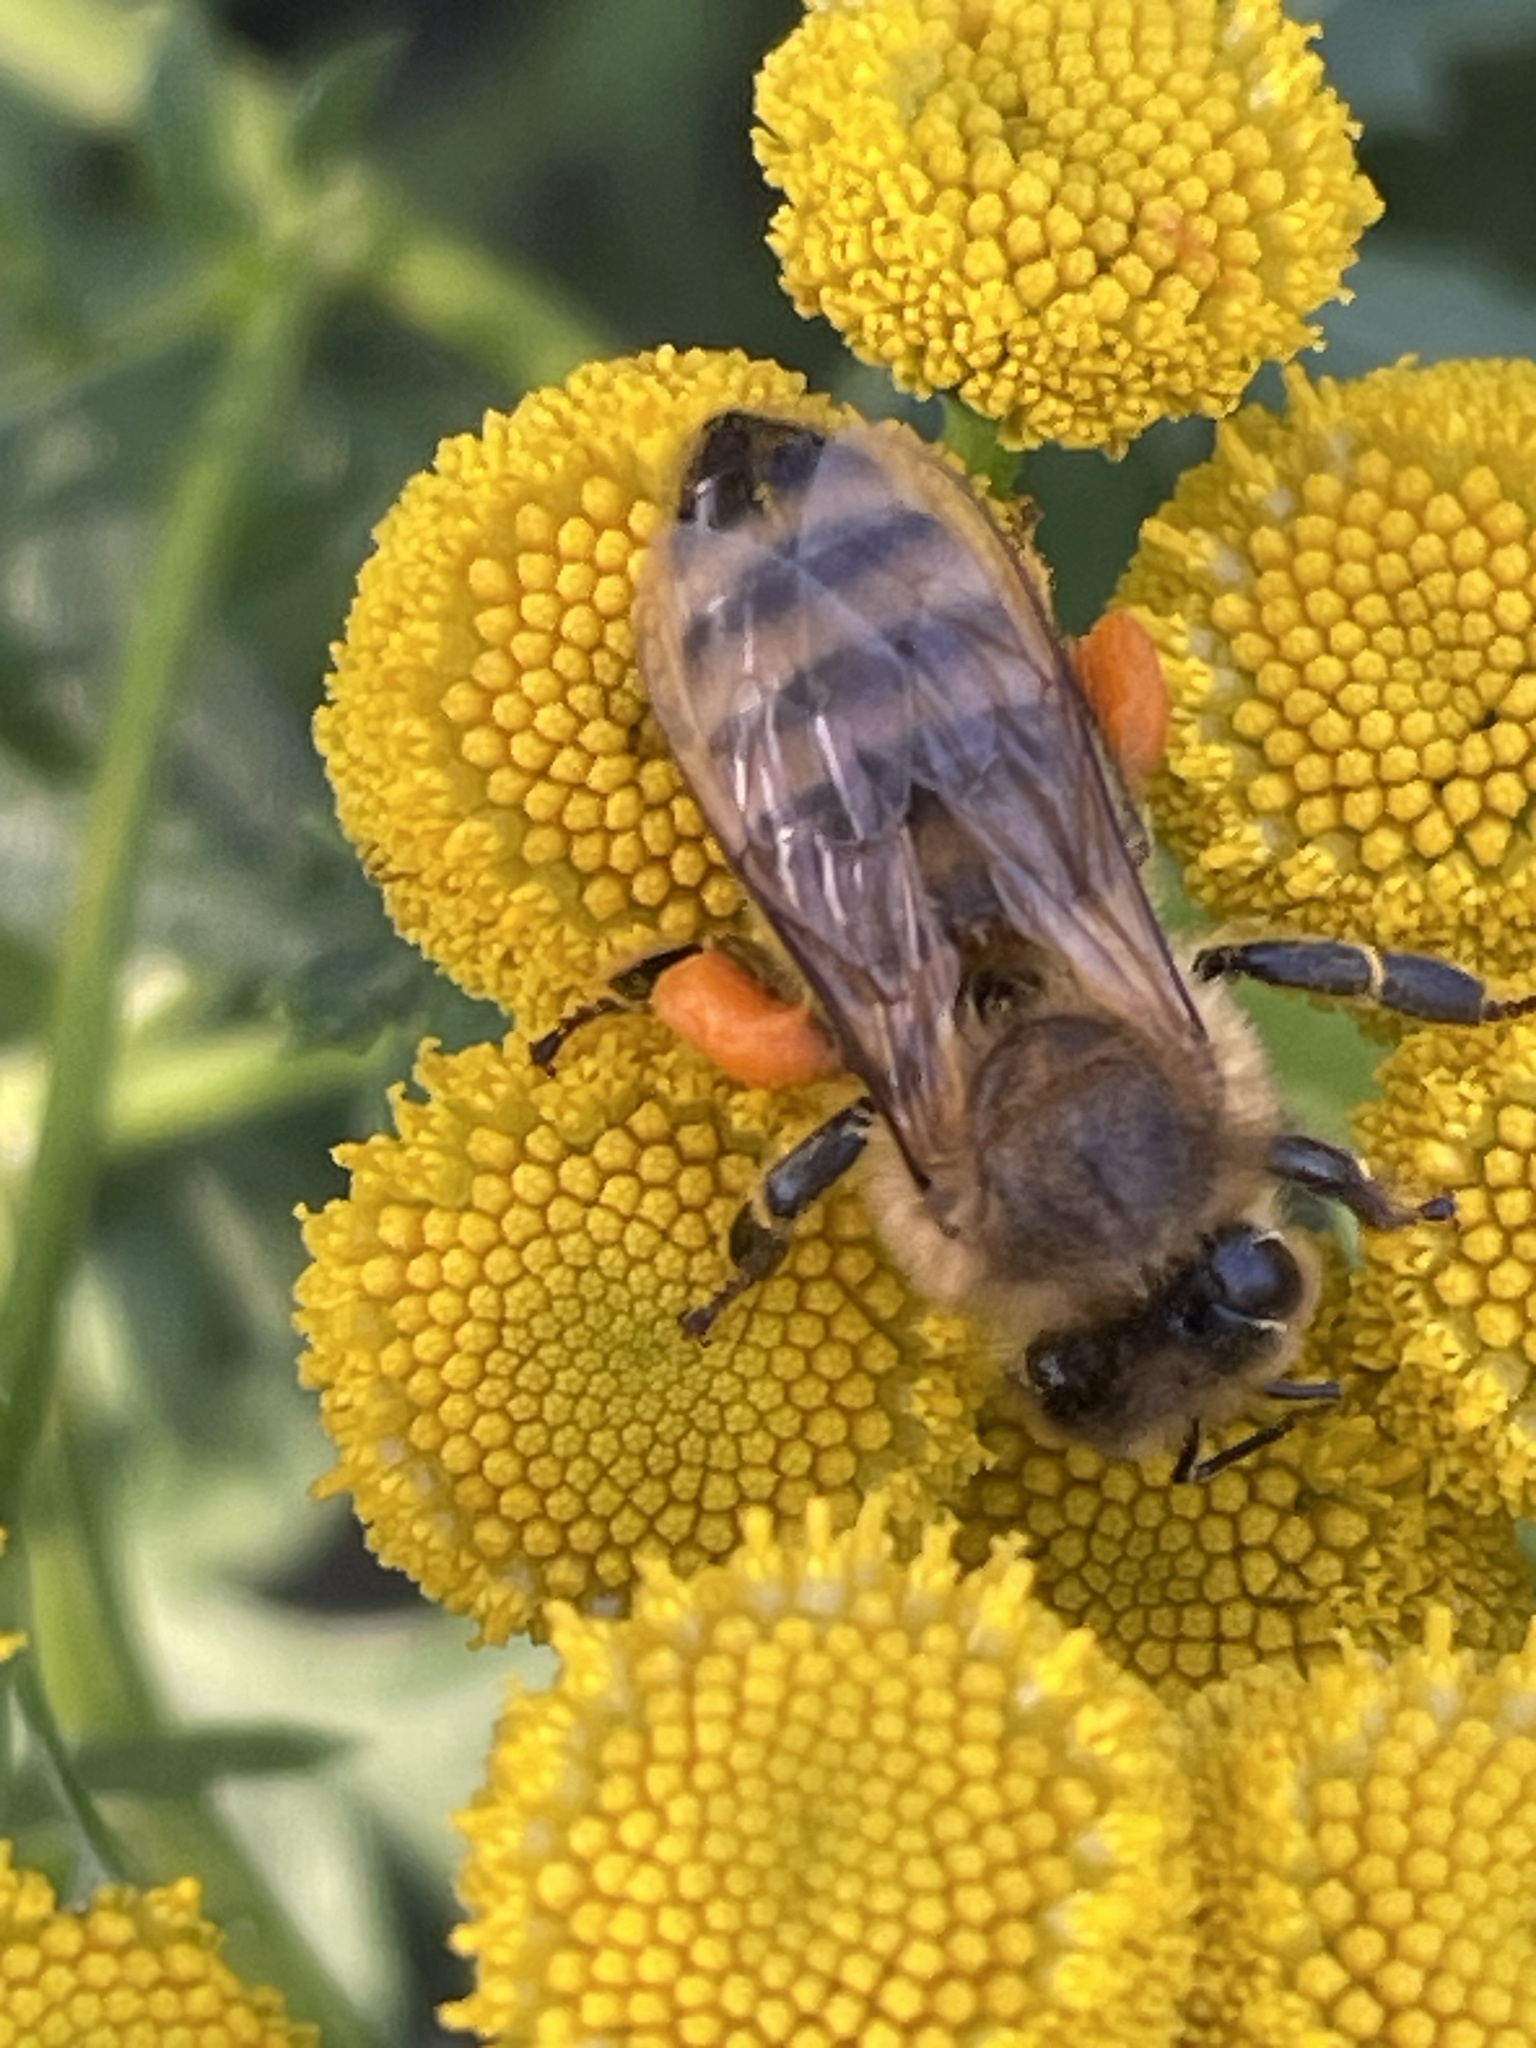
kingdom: Animalia
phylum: Arthropoda
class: Insecta
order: Hymenoptera
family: Apidae
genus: Apis
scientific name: Apis mellifera
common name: Honey bee
